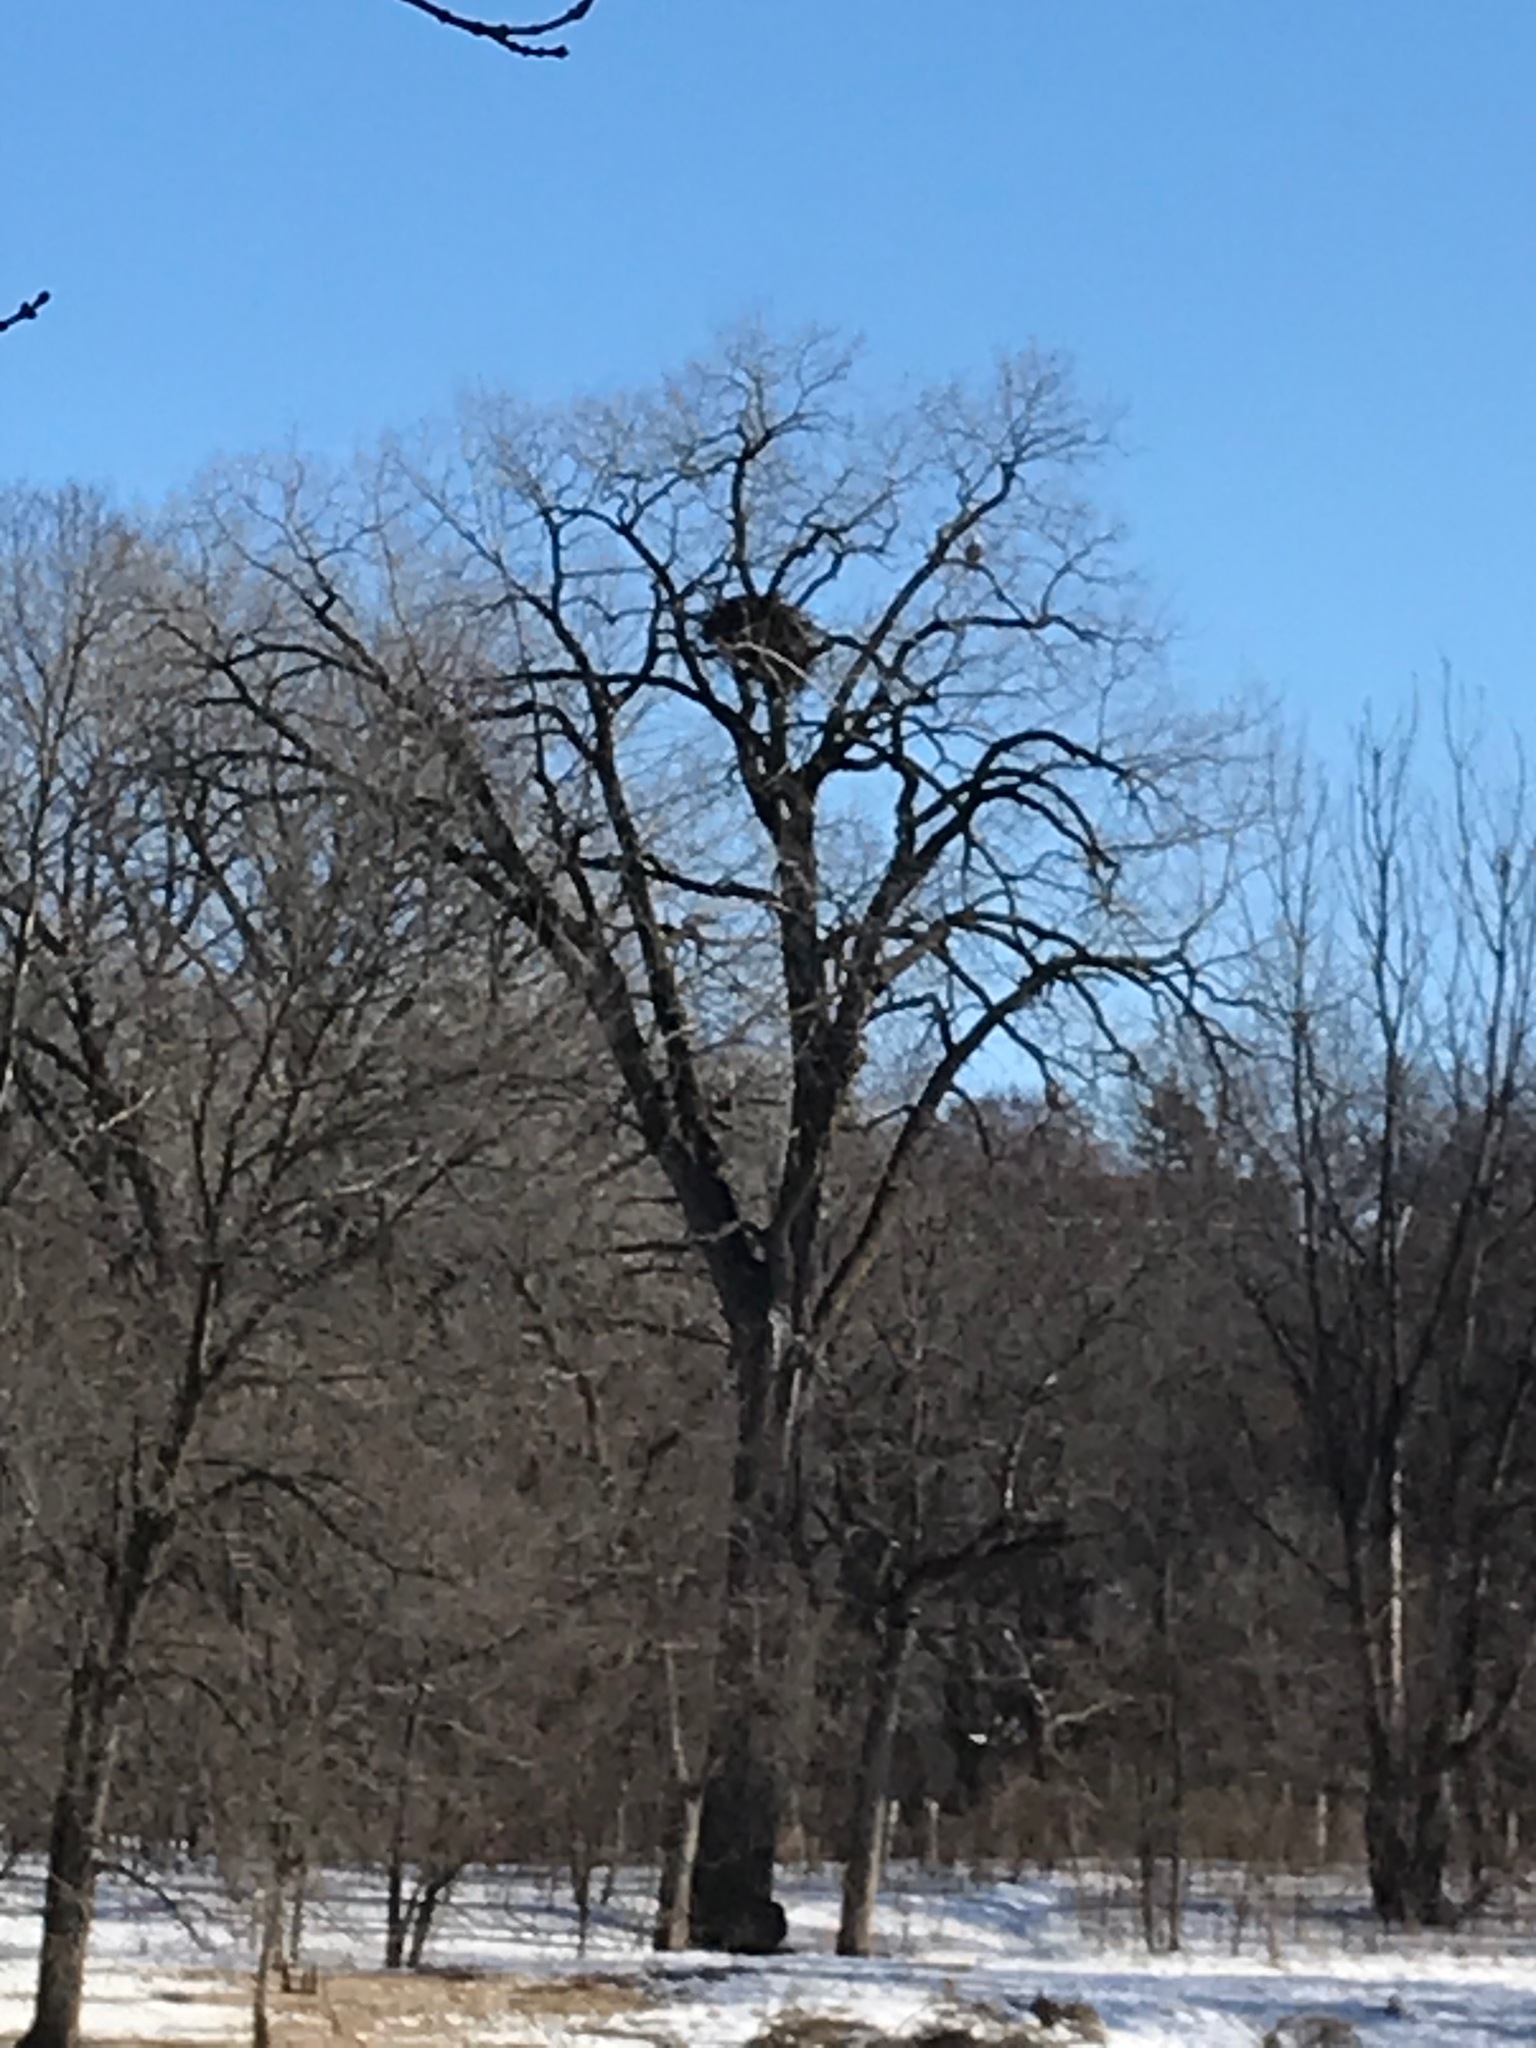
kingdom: Animalia
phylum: Chordata
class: Aves
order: Accipitriformes
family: Accipitridae
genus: Haliaeetus
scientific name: Haliaeetus leucocephalus
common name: Bald eagle
